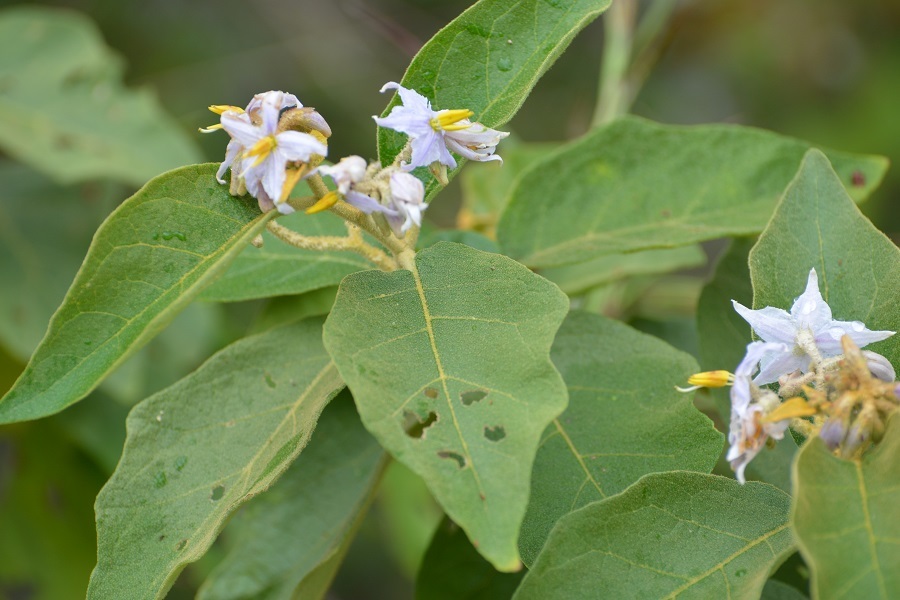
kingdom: Plantae
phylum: Tracheophyta
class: Magnoliopsida
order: Solanales
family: Solanaceae
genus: Solanum
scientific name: Solanum lanceolatum
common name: Orangeberry nightshade
